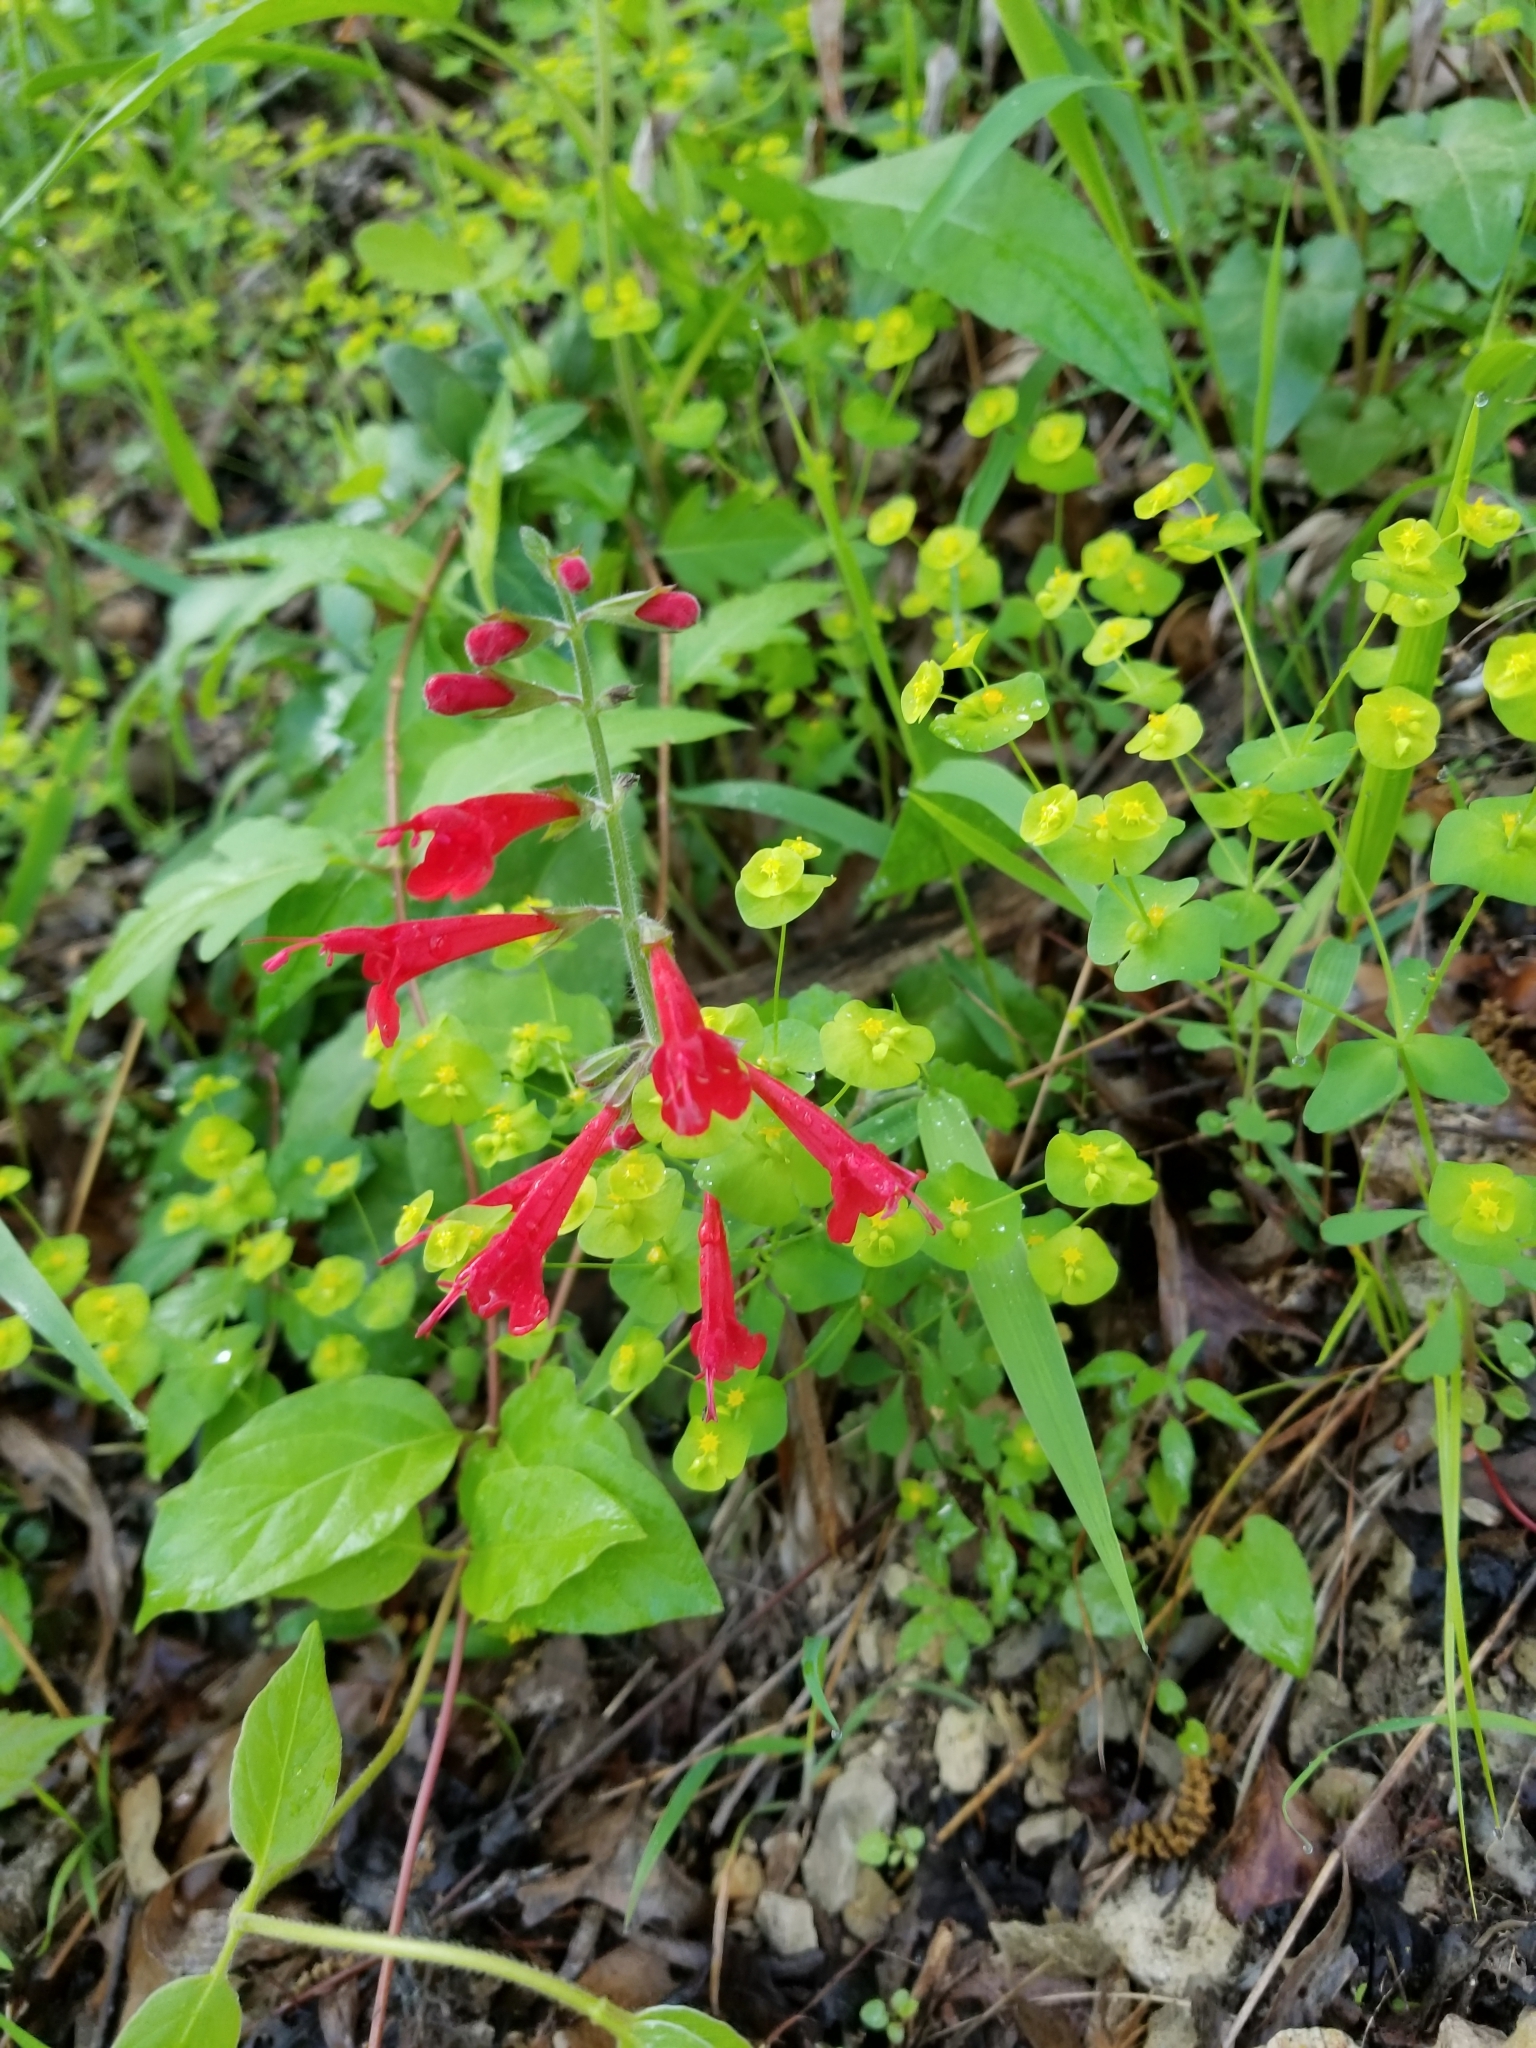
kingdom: Plantae
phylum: Tracheophyta
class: Magnoliopsida
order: Lamiales
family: Lamiaceae
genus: Salvia
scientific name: Salvia roemeriana
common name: Cedar sage
